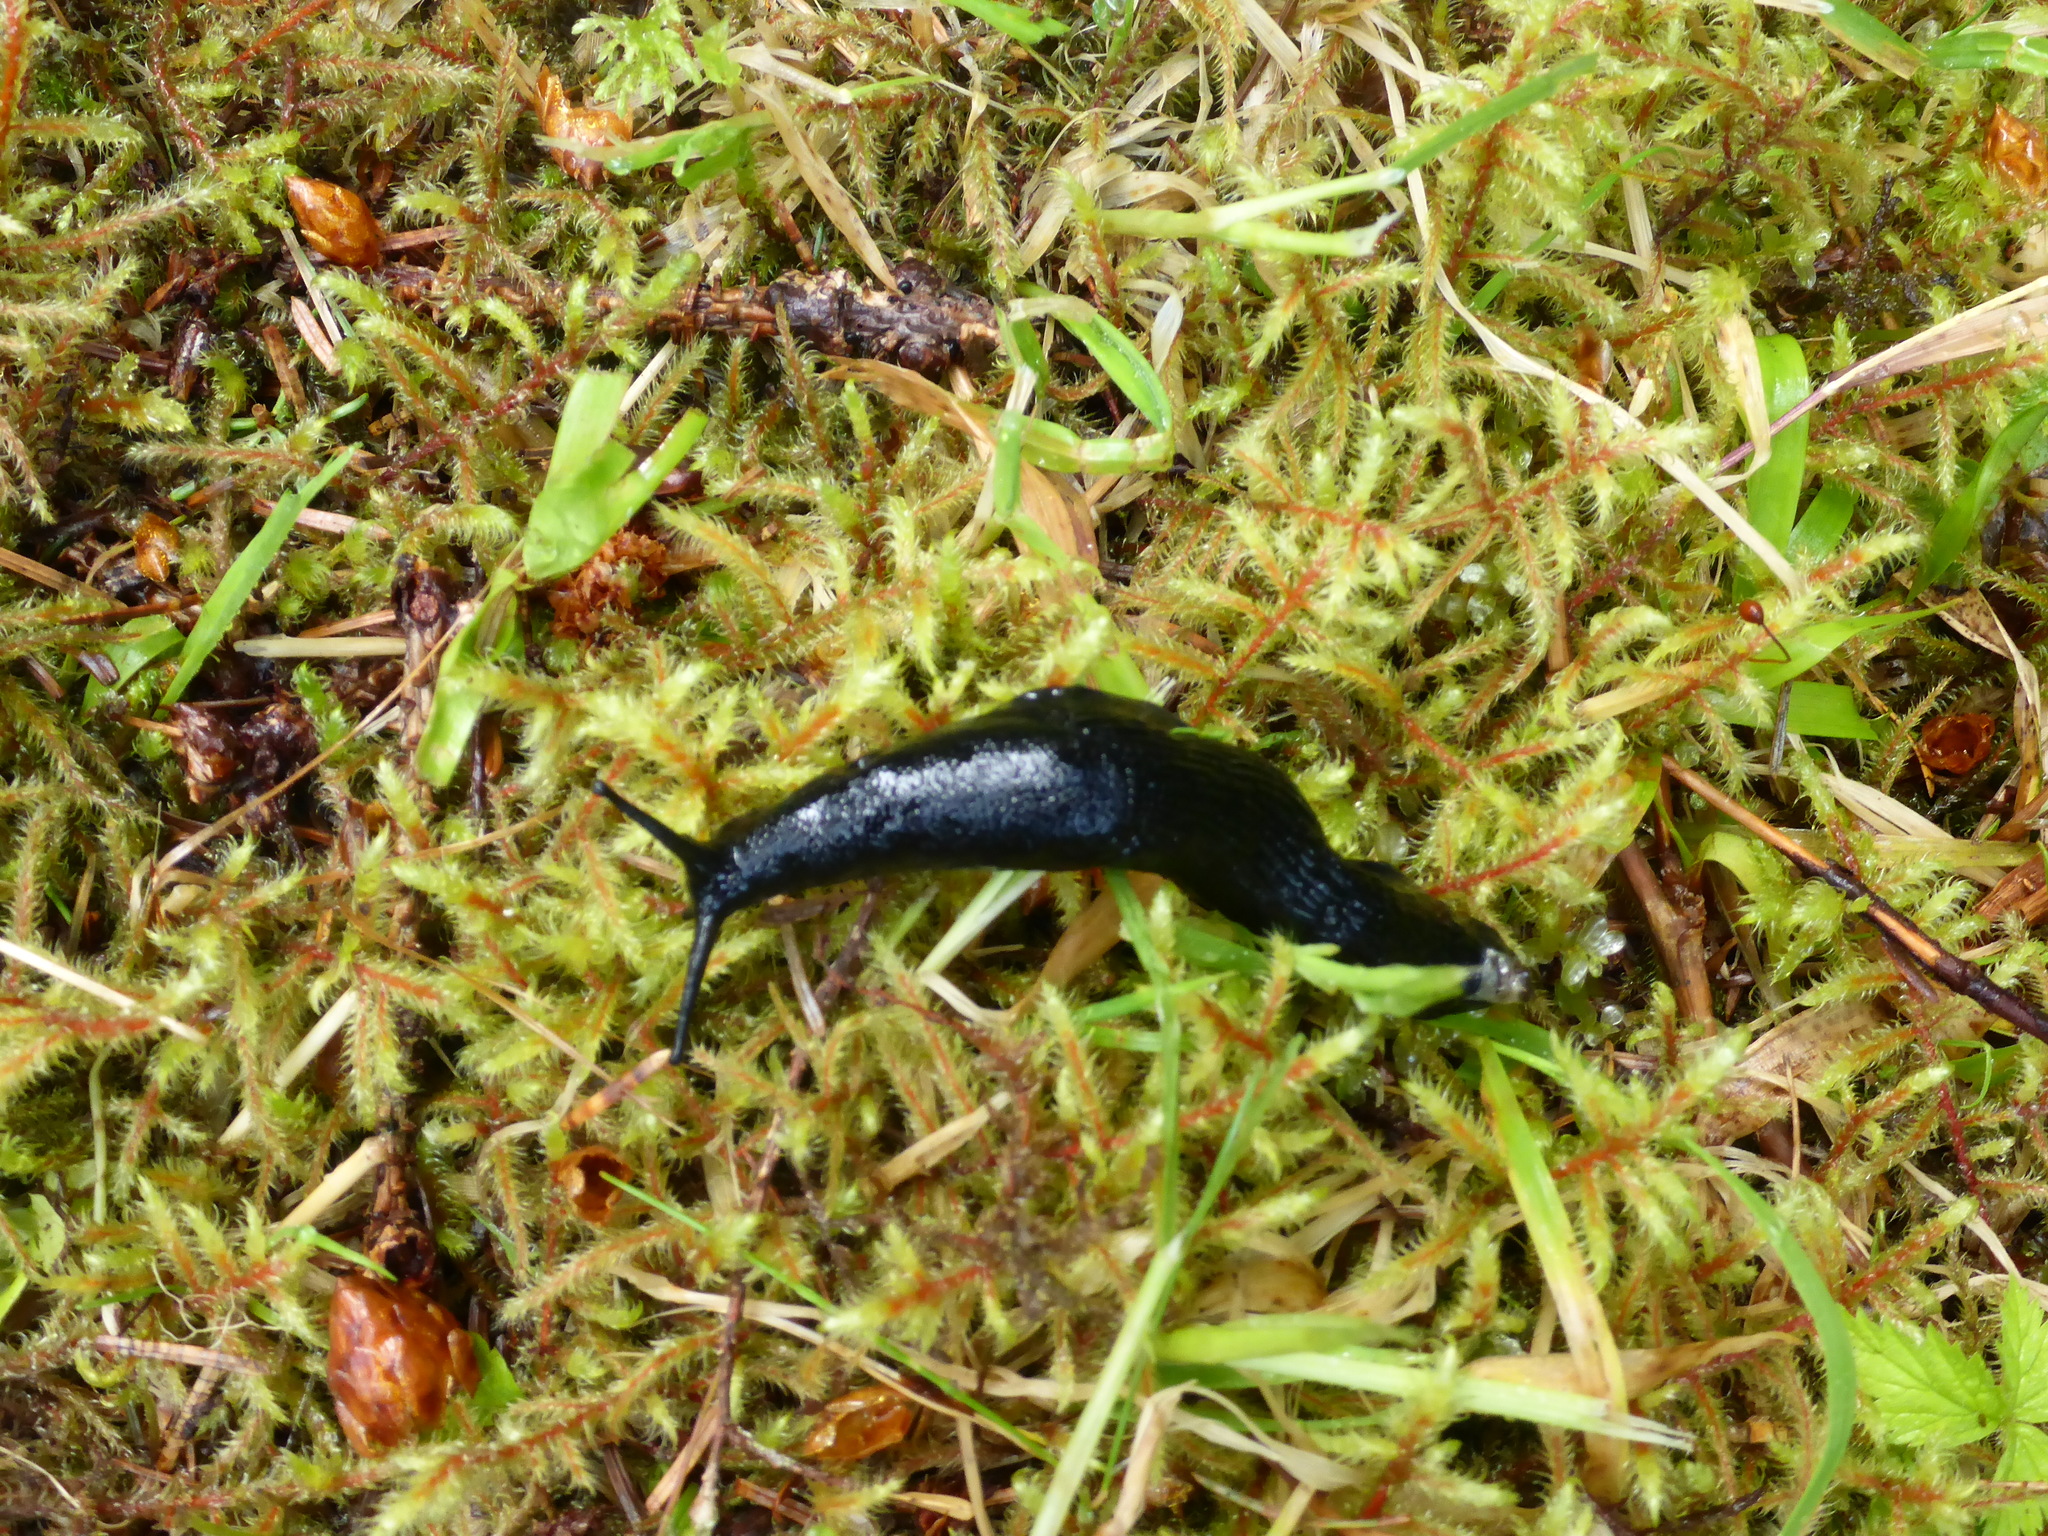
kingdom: Animalia
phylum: Mollusca
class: Gastropoda
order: Stylommatophora
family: Arionidae
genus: Arion
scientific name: Arion
